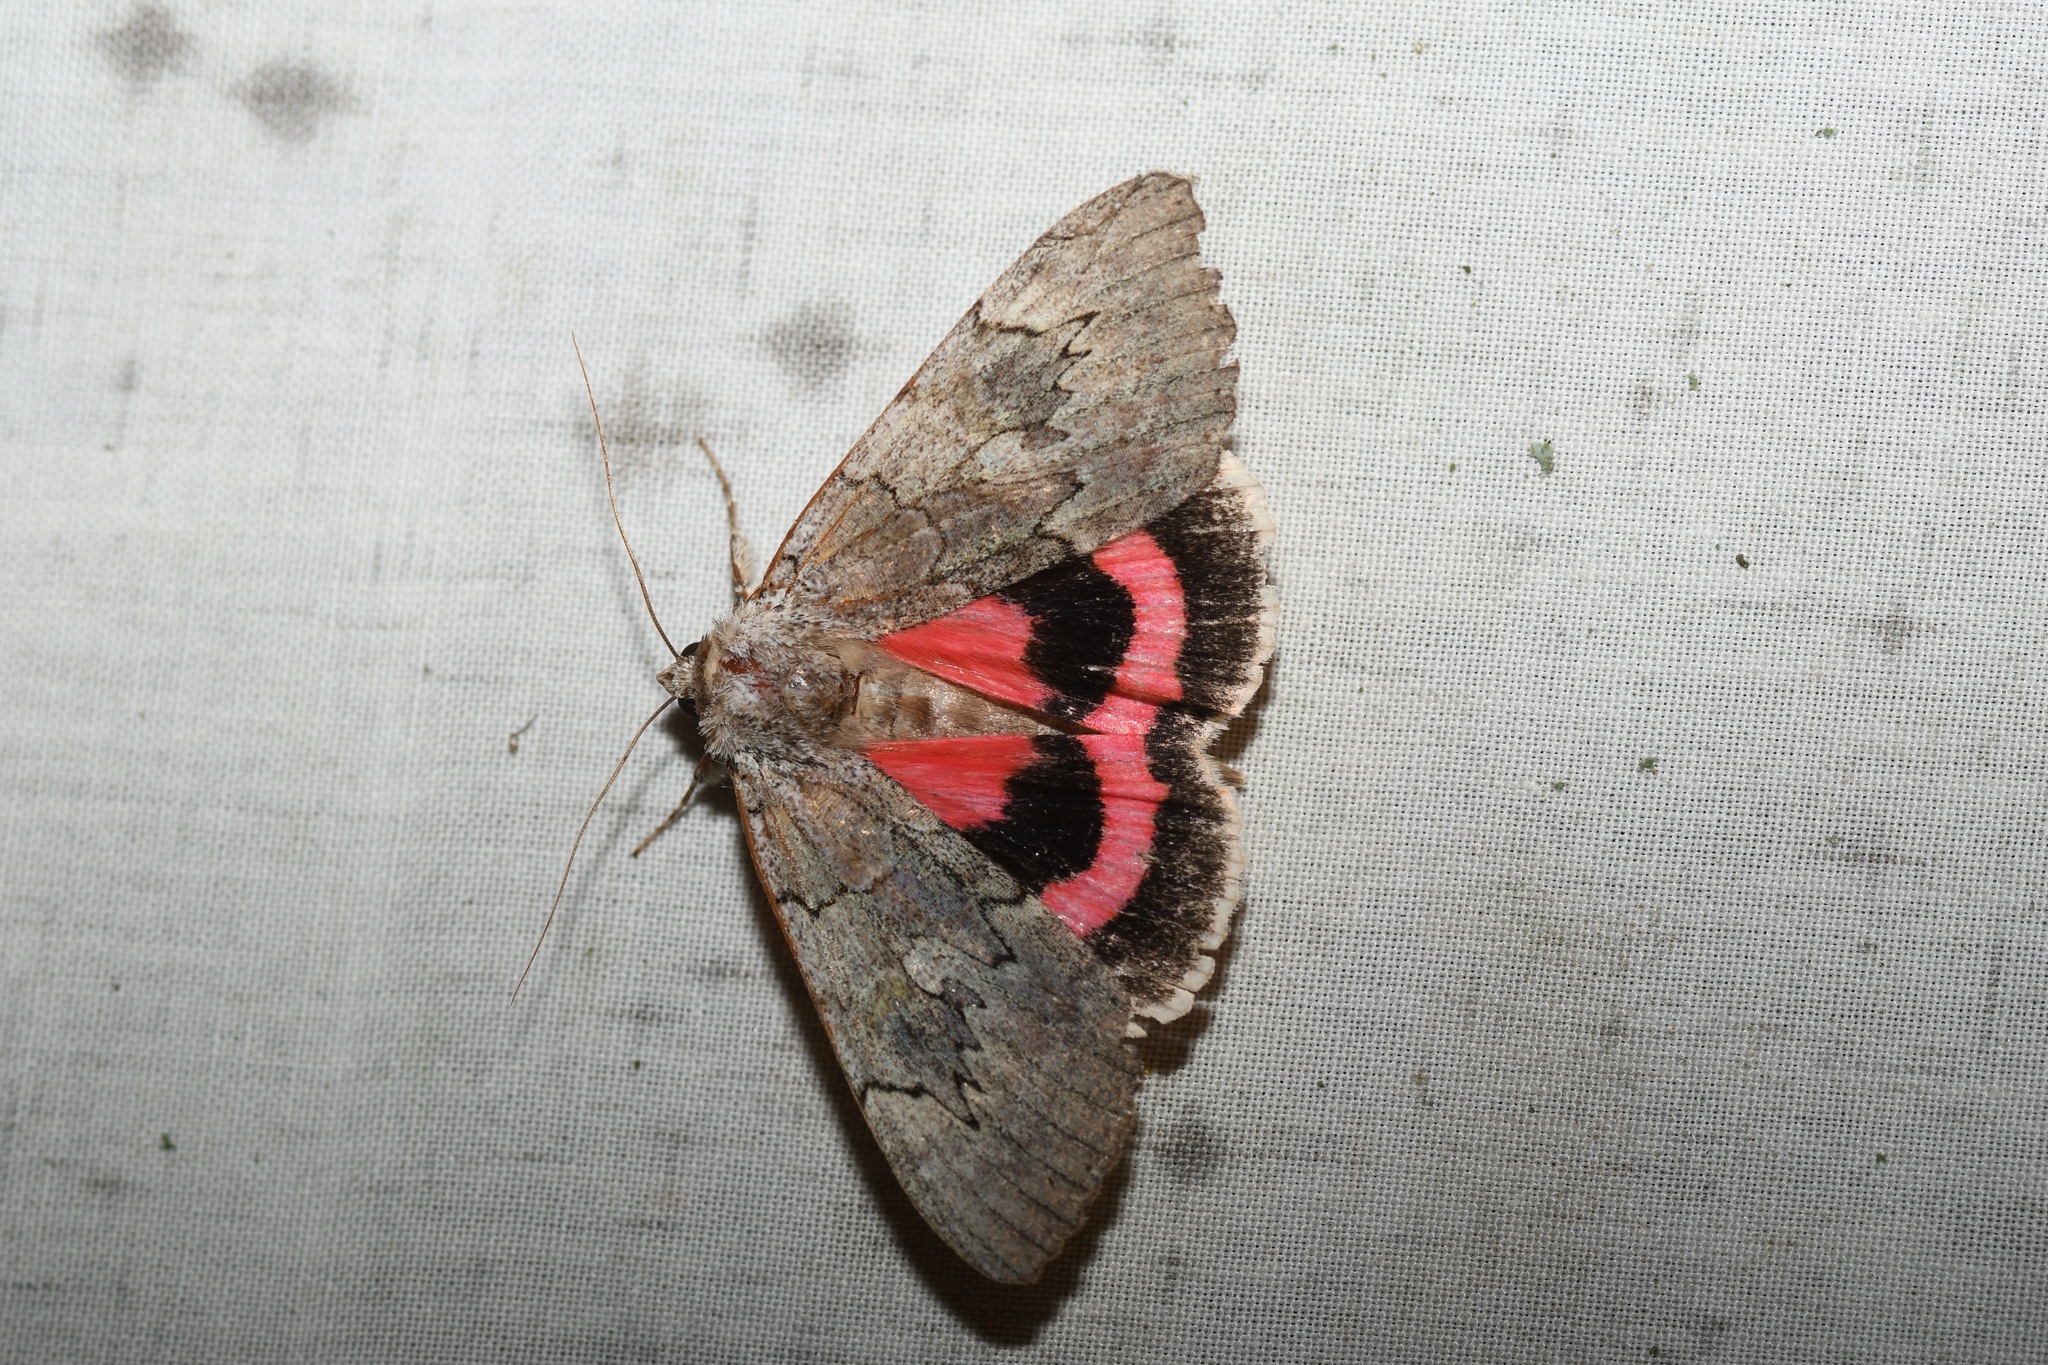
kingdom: Animalia
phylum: Arthropoda
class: Insecta
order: Lepidoptera
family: Erebidae
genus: Catocala
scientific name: Catocala concumbens
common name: Pink underwing
